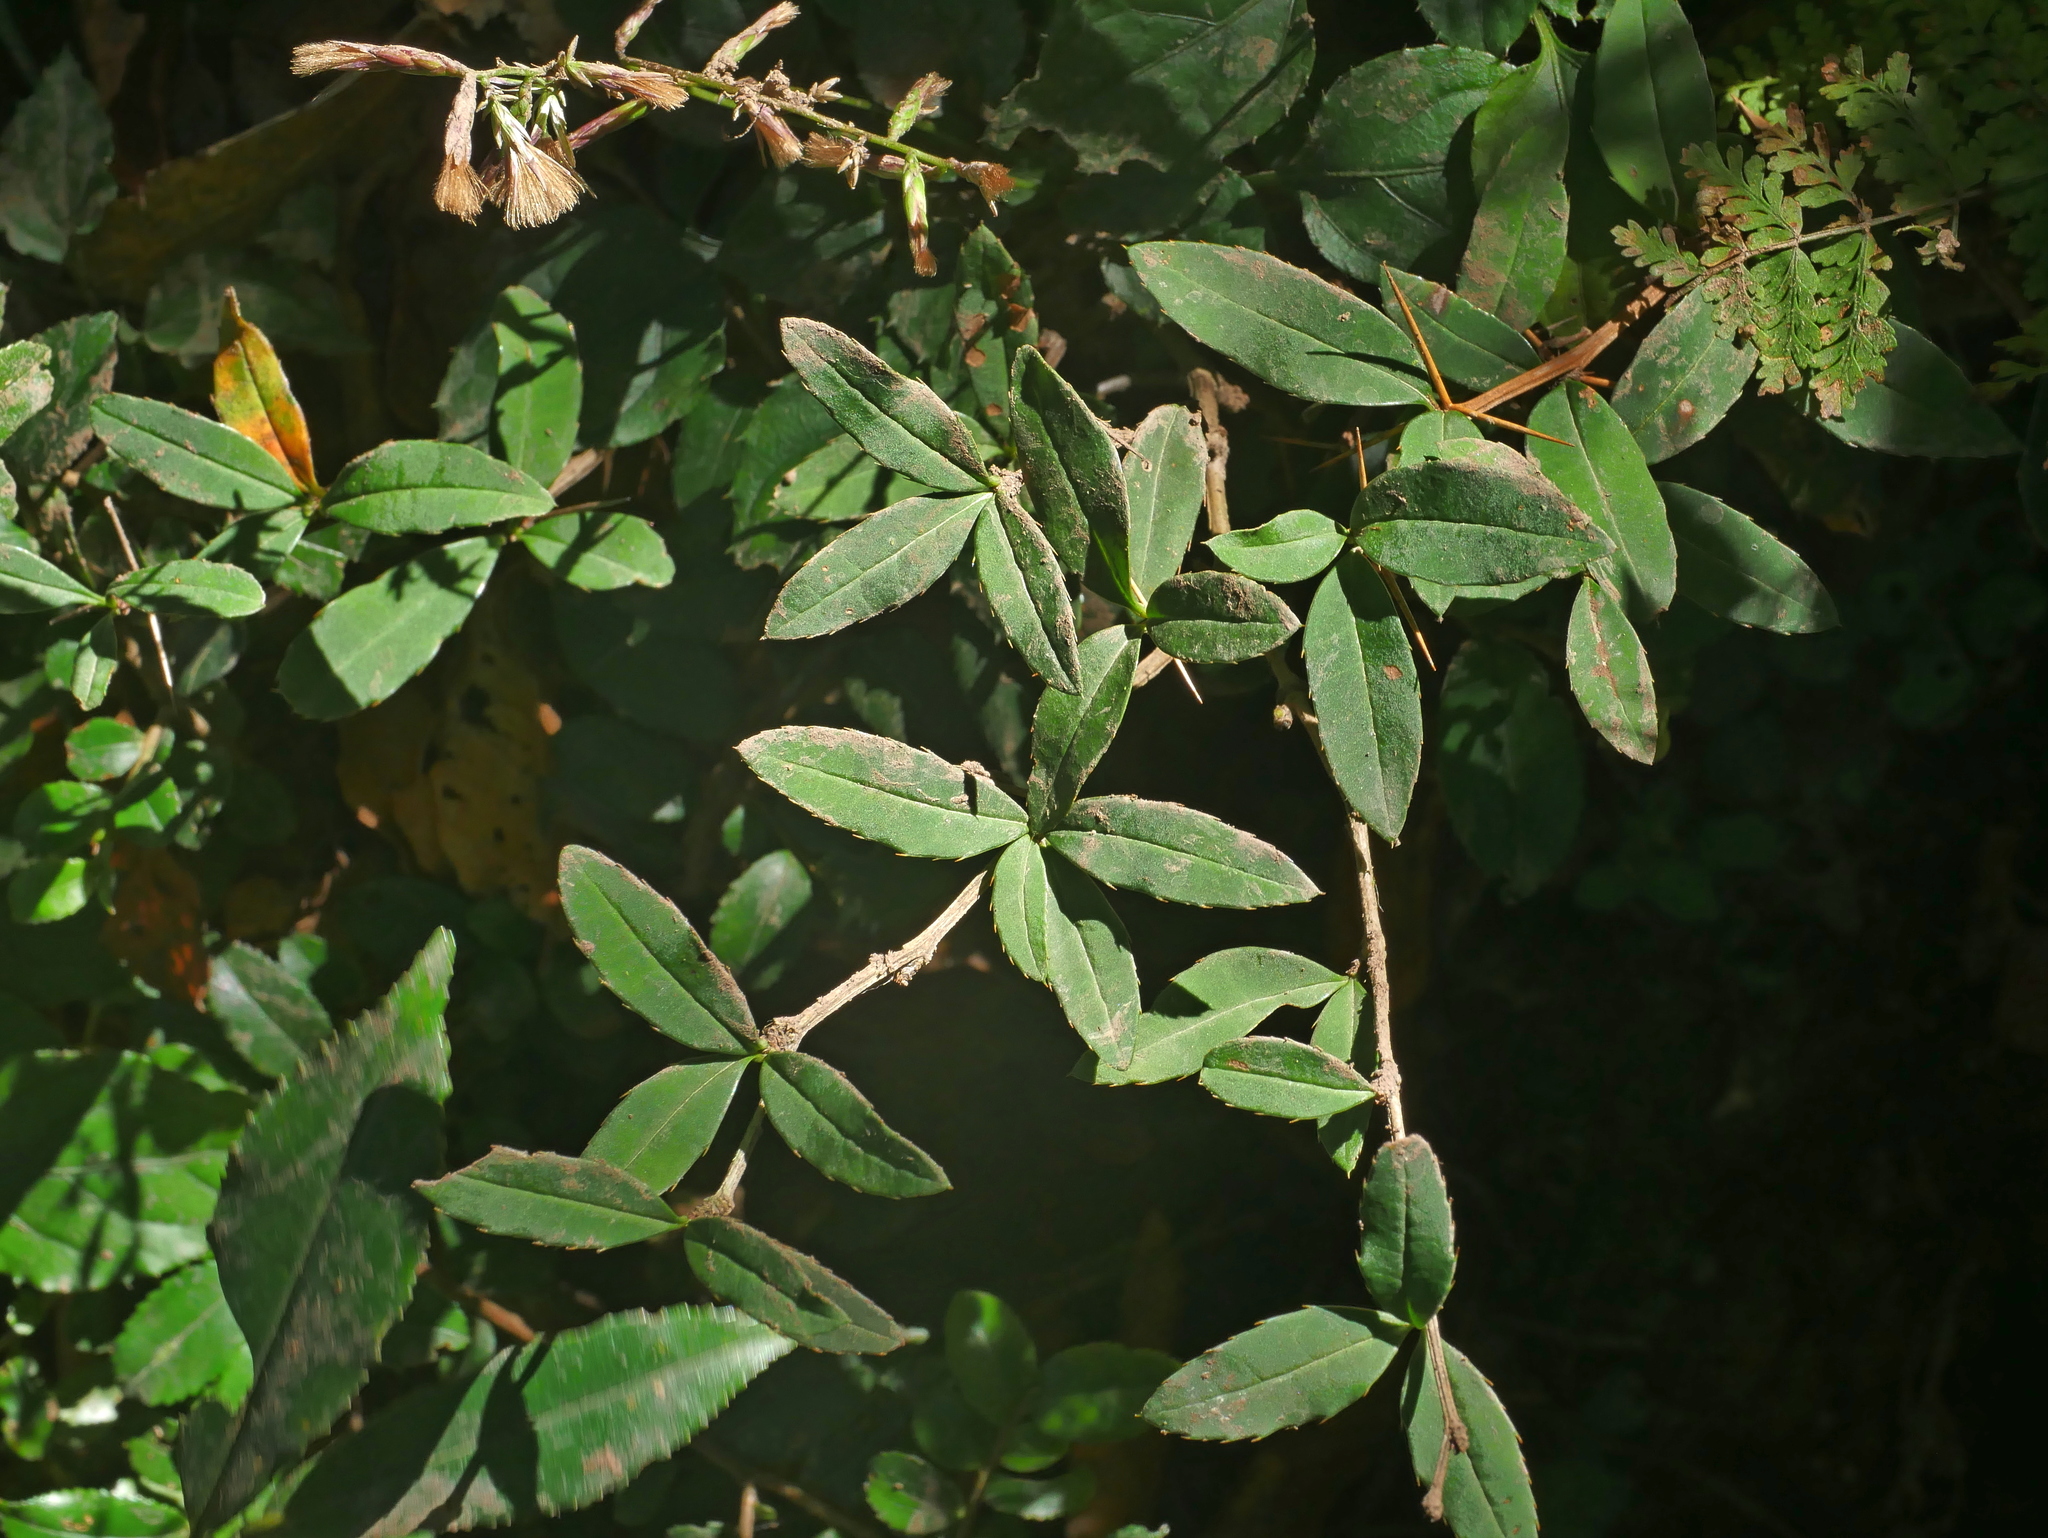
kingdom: Plantae
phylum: Tracheophyta
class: Magnoliopsida
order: Ranunculales
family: Berberidaceae
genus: Berberis
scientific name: Berberis hayatana
